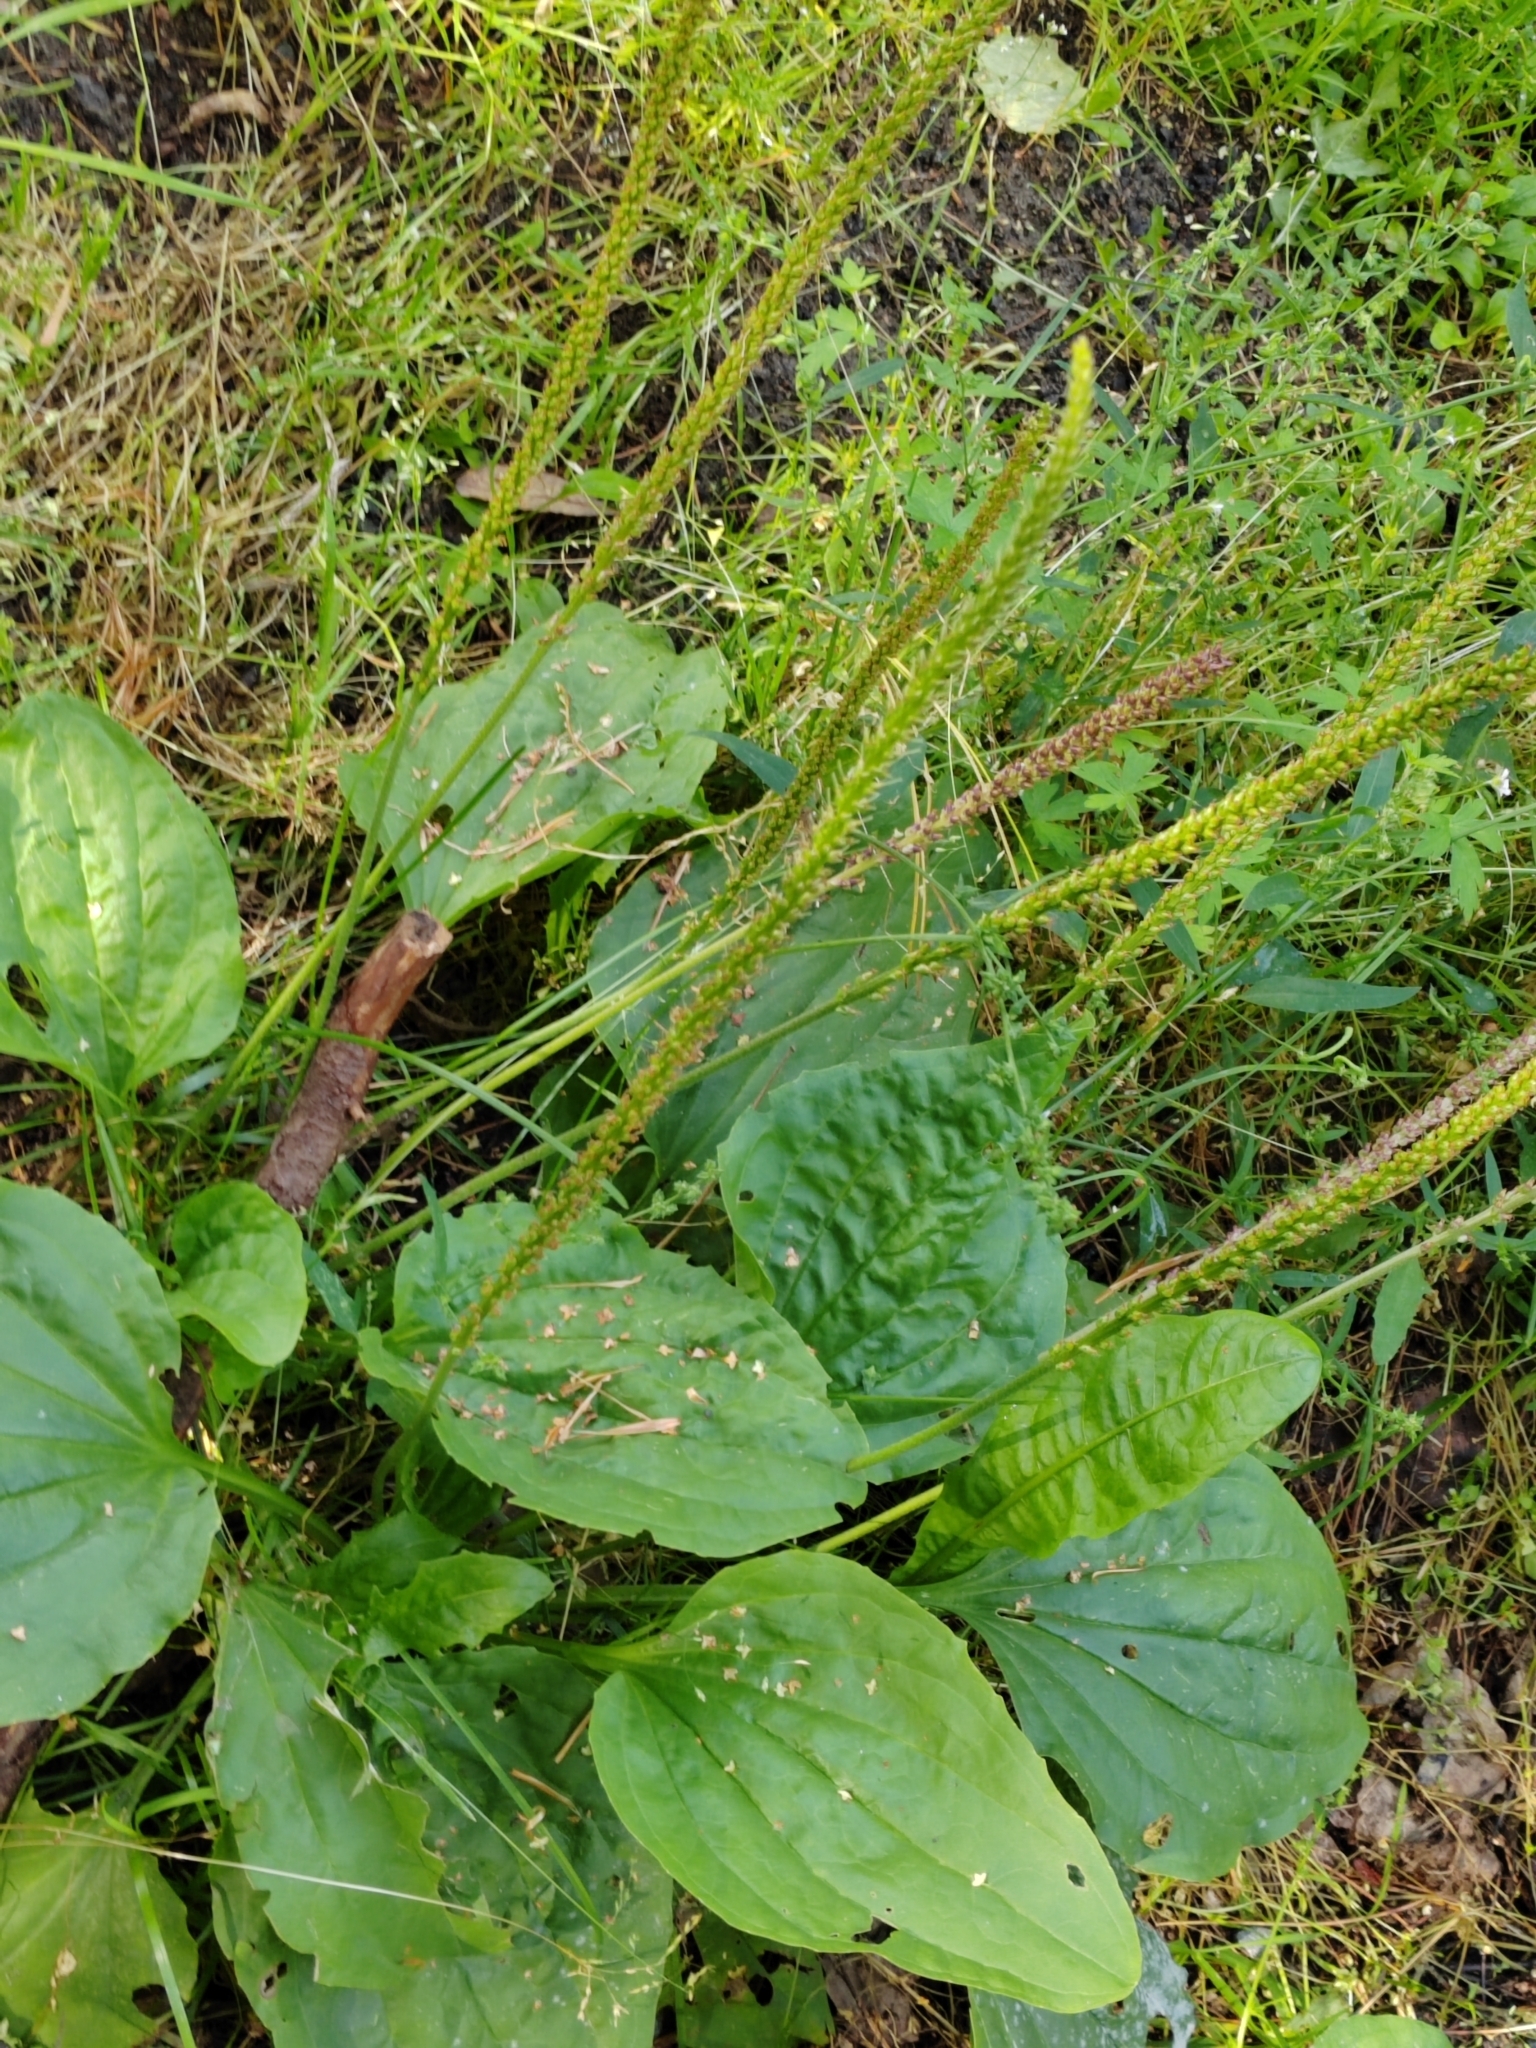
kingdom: Plantae
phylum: Tracheophyta
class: Magnoliopsida
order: Lamiales
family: Plantaginaceae
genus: Plantago
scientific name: Plantago major
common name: Common plantain
